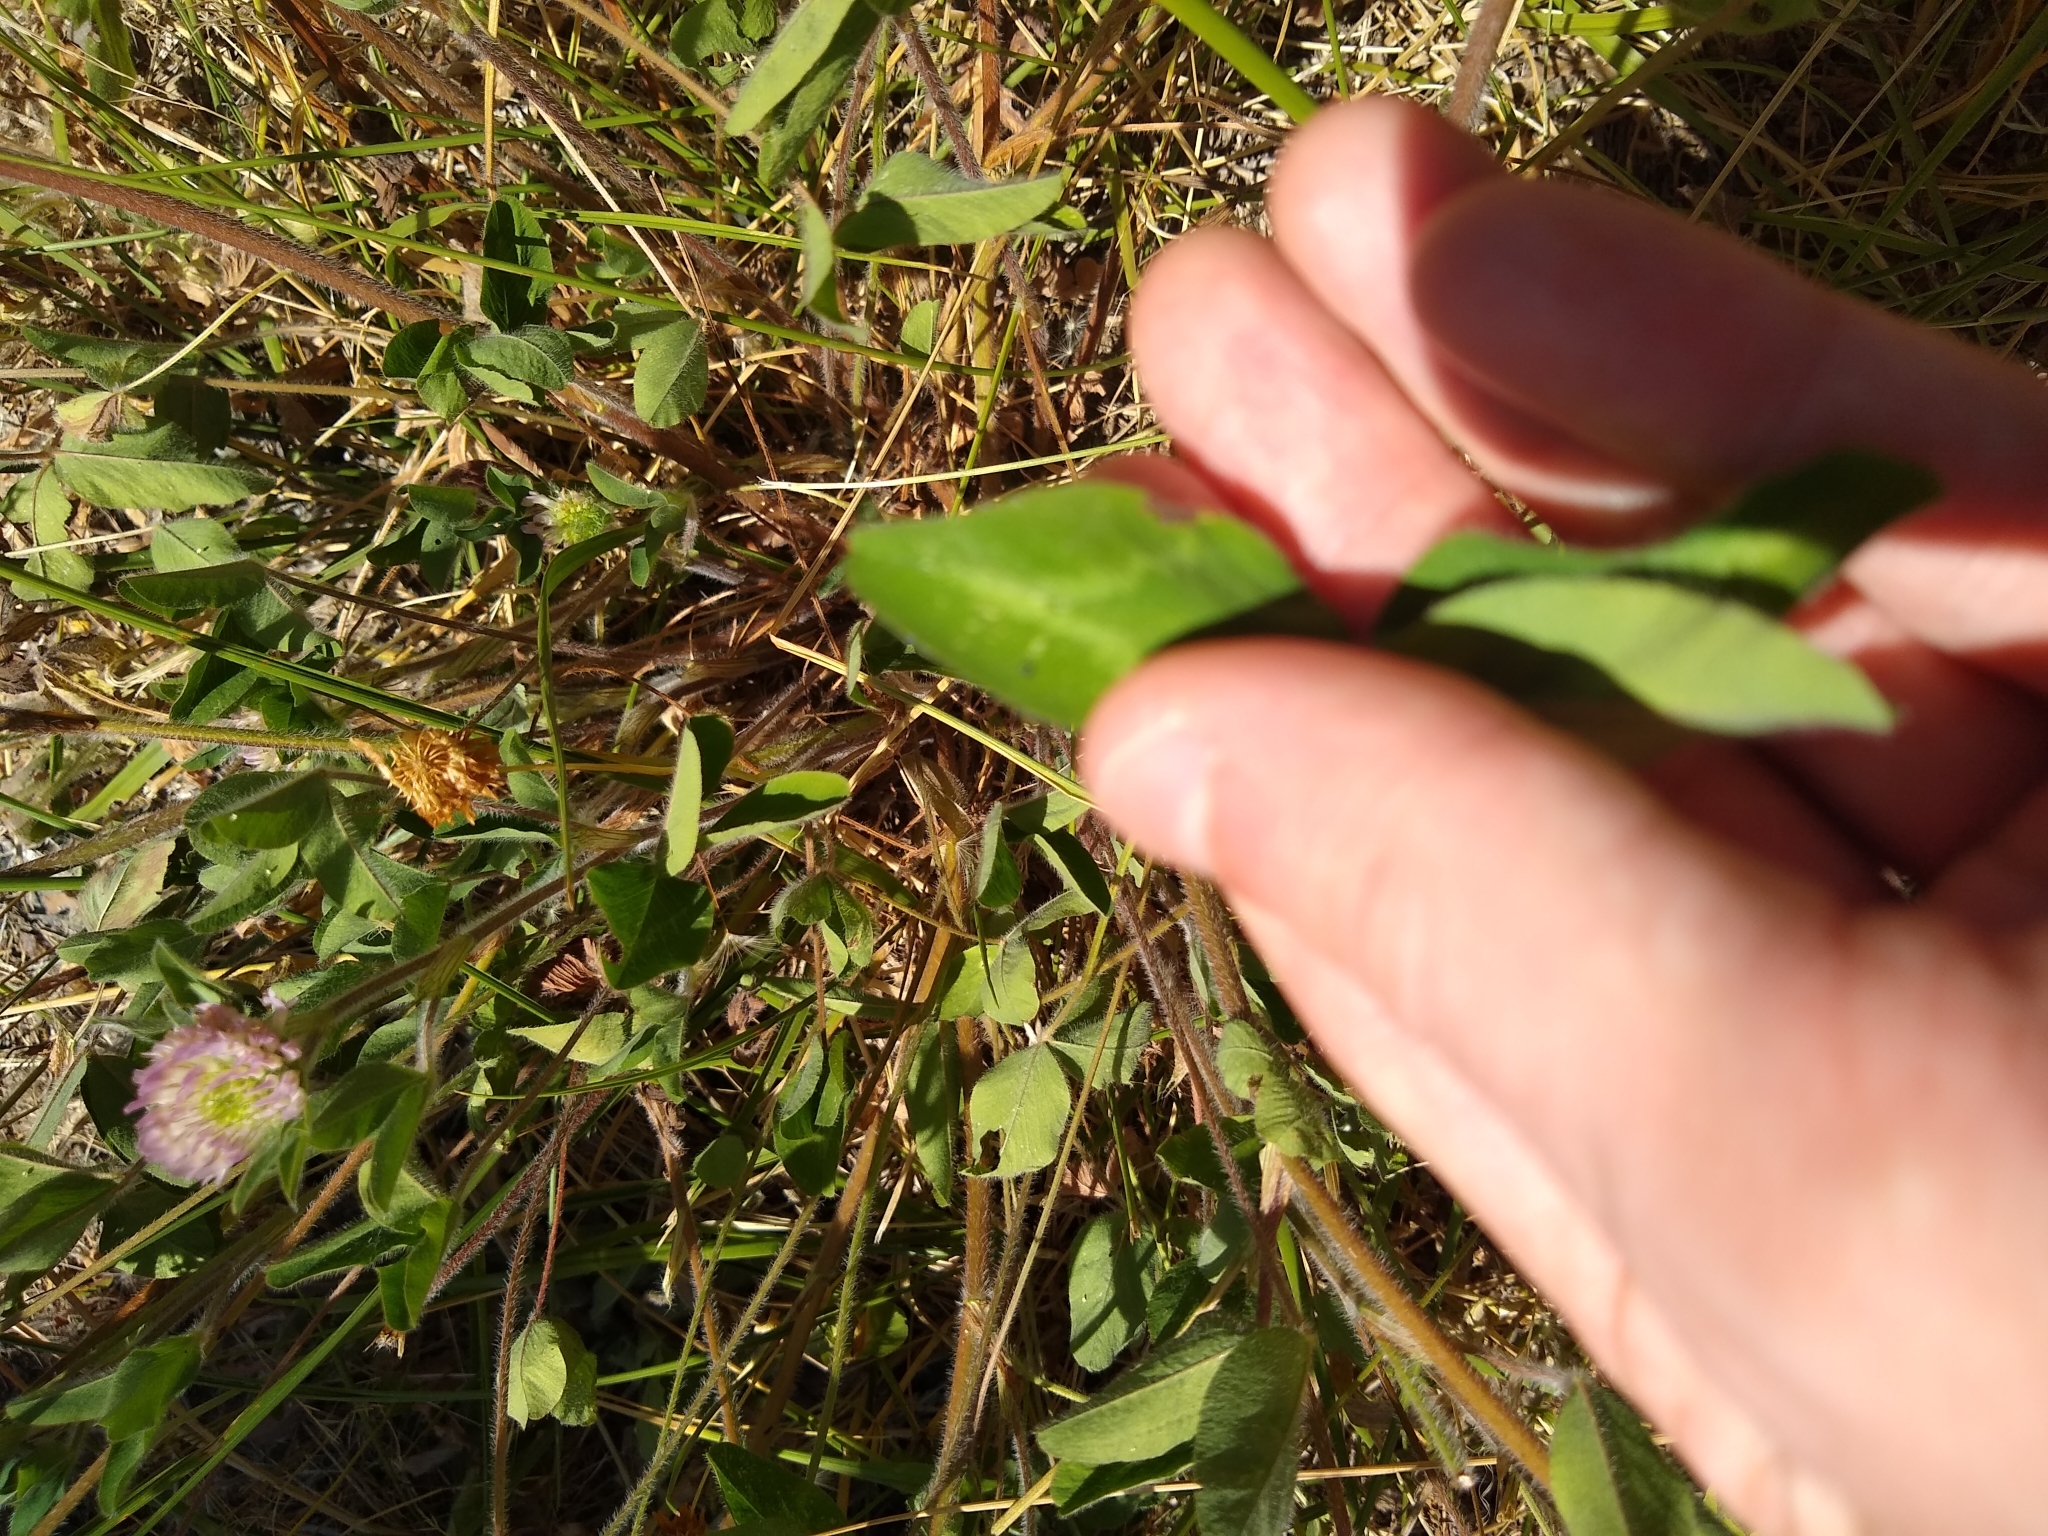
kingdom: Plantae
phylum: Tracheophyta
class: Magnoliopsida
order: Fabales
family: Fabaceae
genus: Trifolium
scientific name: Trifolium pratense
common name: Red clover
